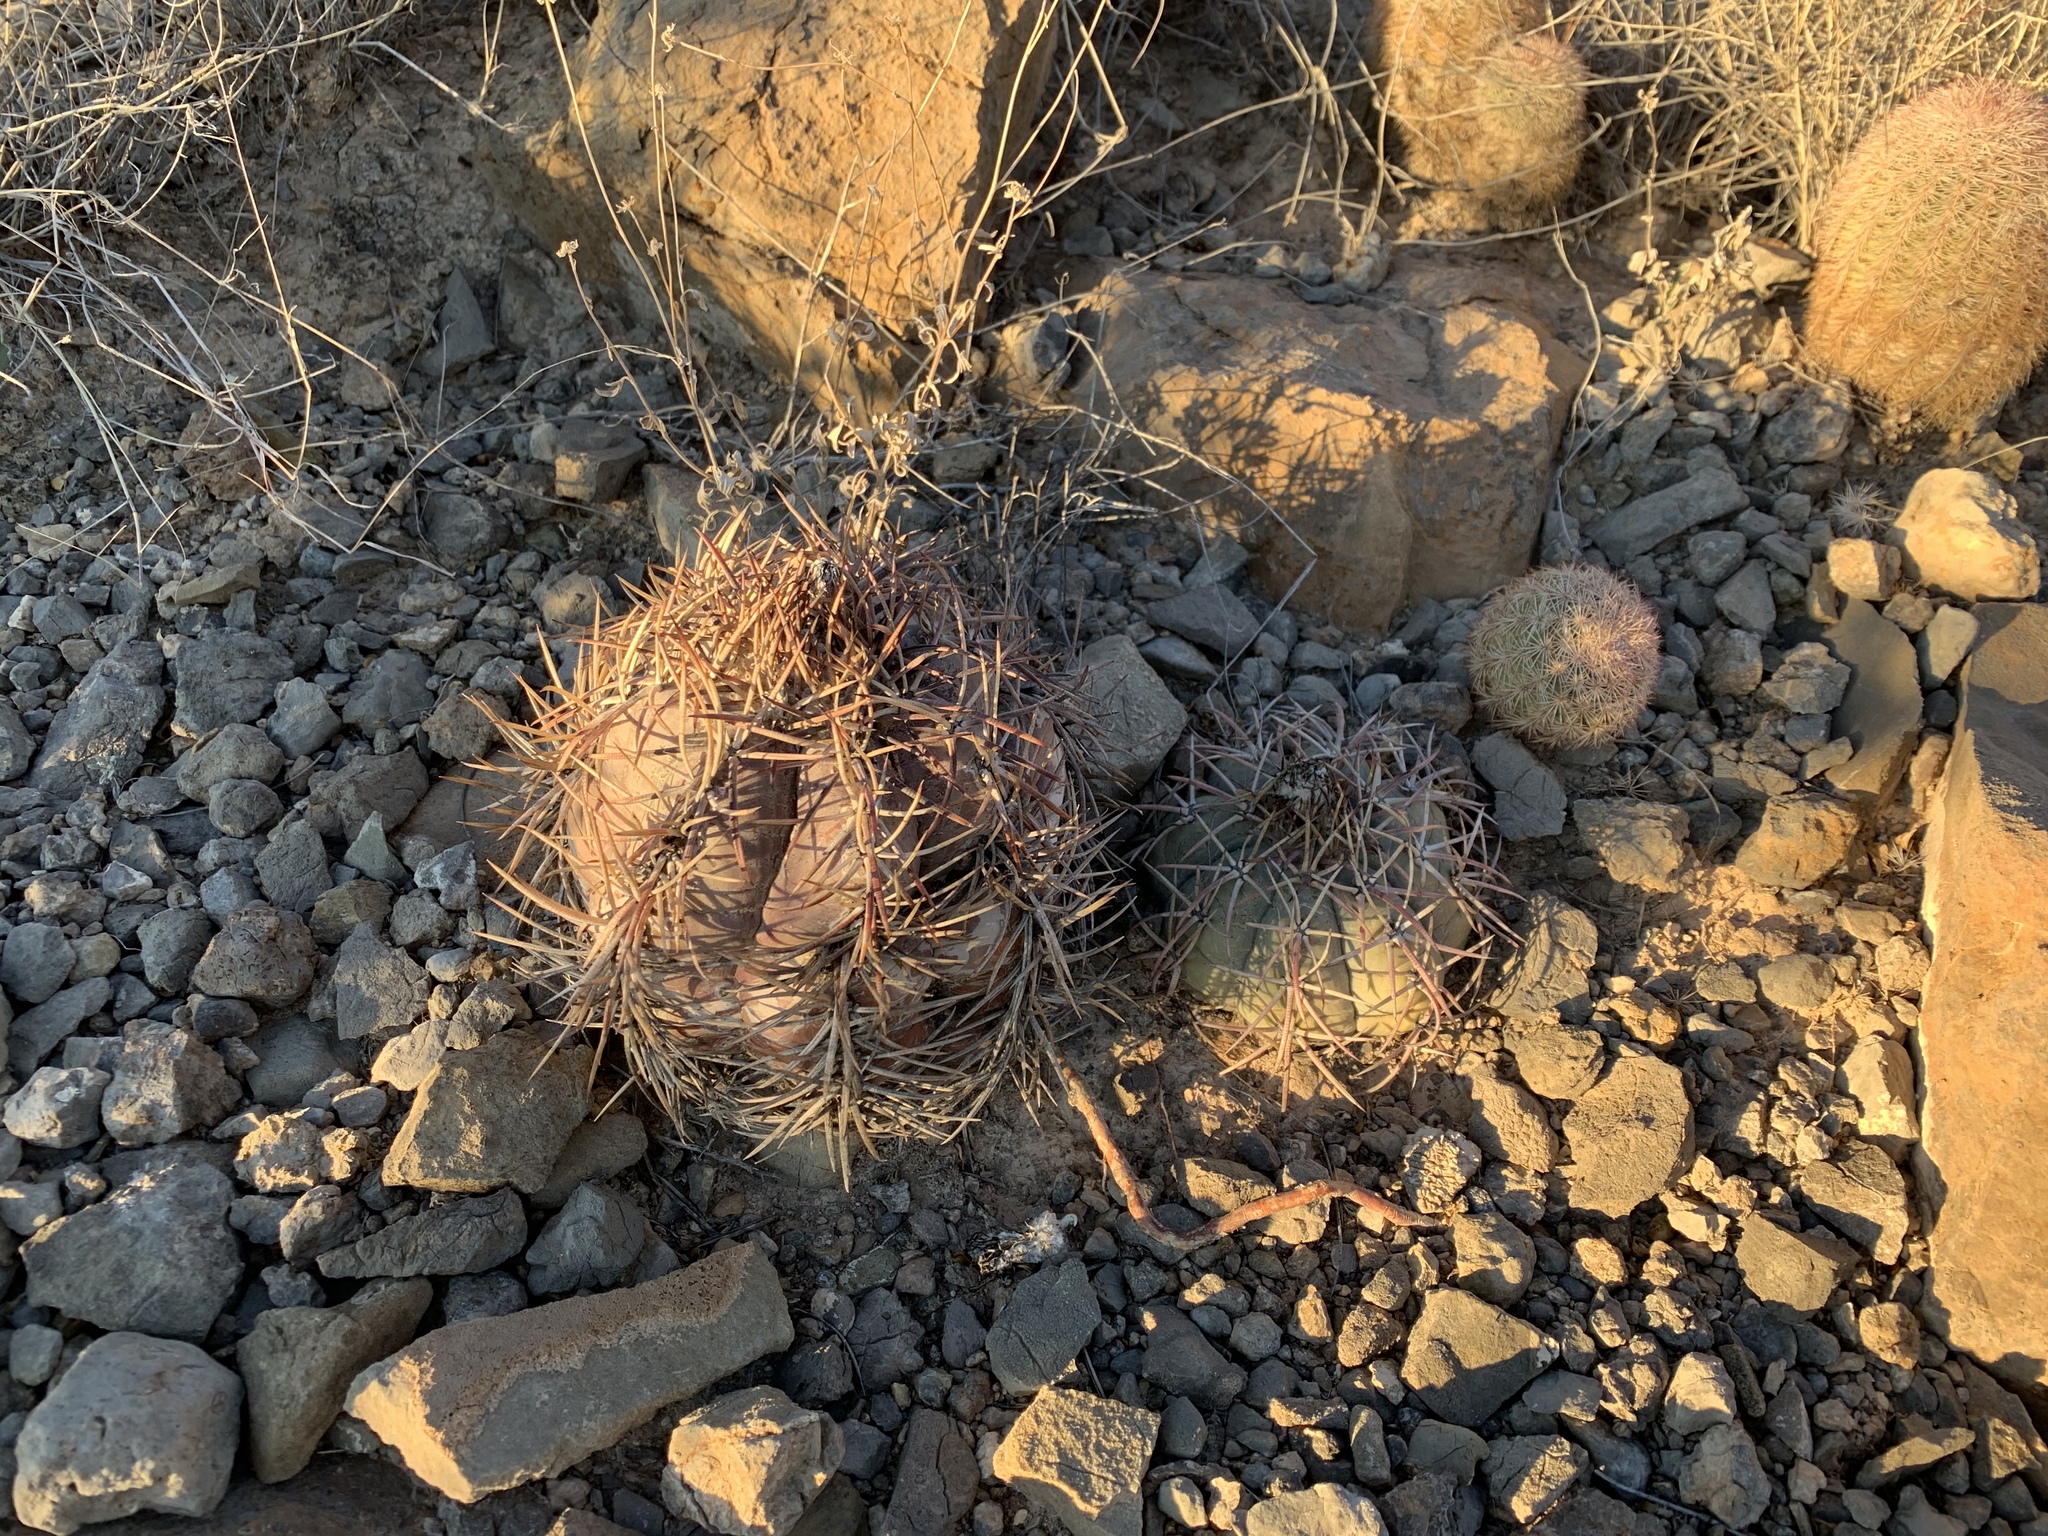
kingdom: Plantae
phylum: Tracheophyta
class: Magnoliopsida
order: Caryophyllales
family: Cactaceae
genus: Echinocactus
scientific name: Echinocactus horizonthalonius
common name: Devilshead
